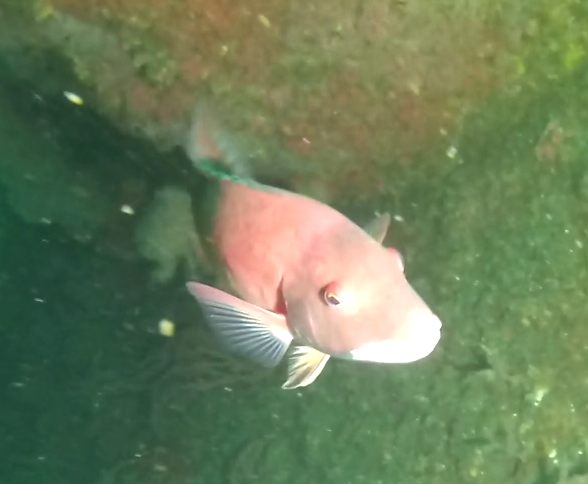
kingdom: Animalia
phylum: Chordata
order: Perciformes
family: Labridae
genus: Semicossyphus
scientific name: Semicossyphus pulcher
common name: California sheephead
